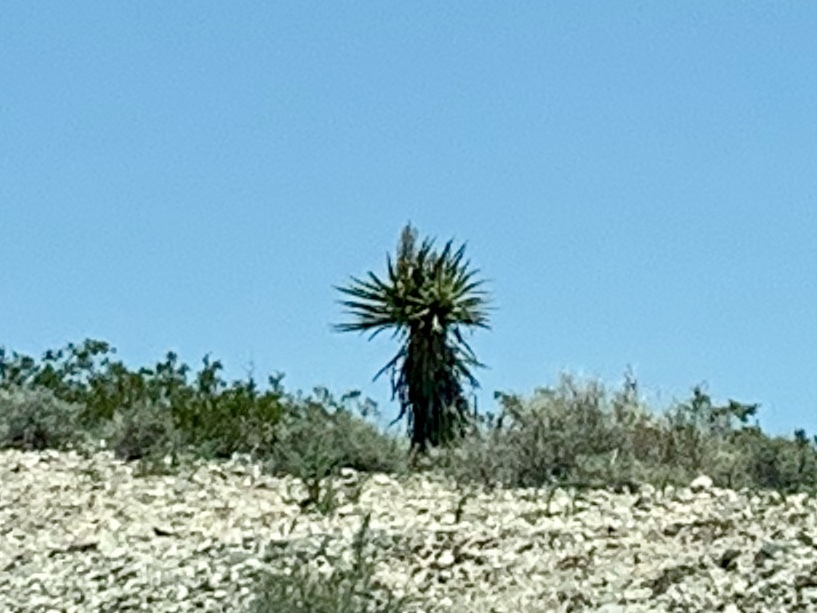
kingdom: Plantae
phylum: Tracheophyta
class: Liliopsida
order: Asparagales
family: Asparagaceae
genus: Yucca
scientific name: Yucca schidigera
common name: Mojave yucca
